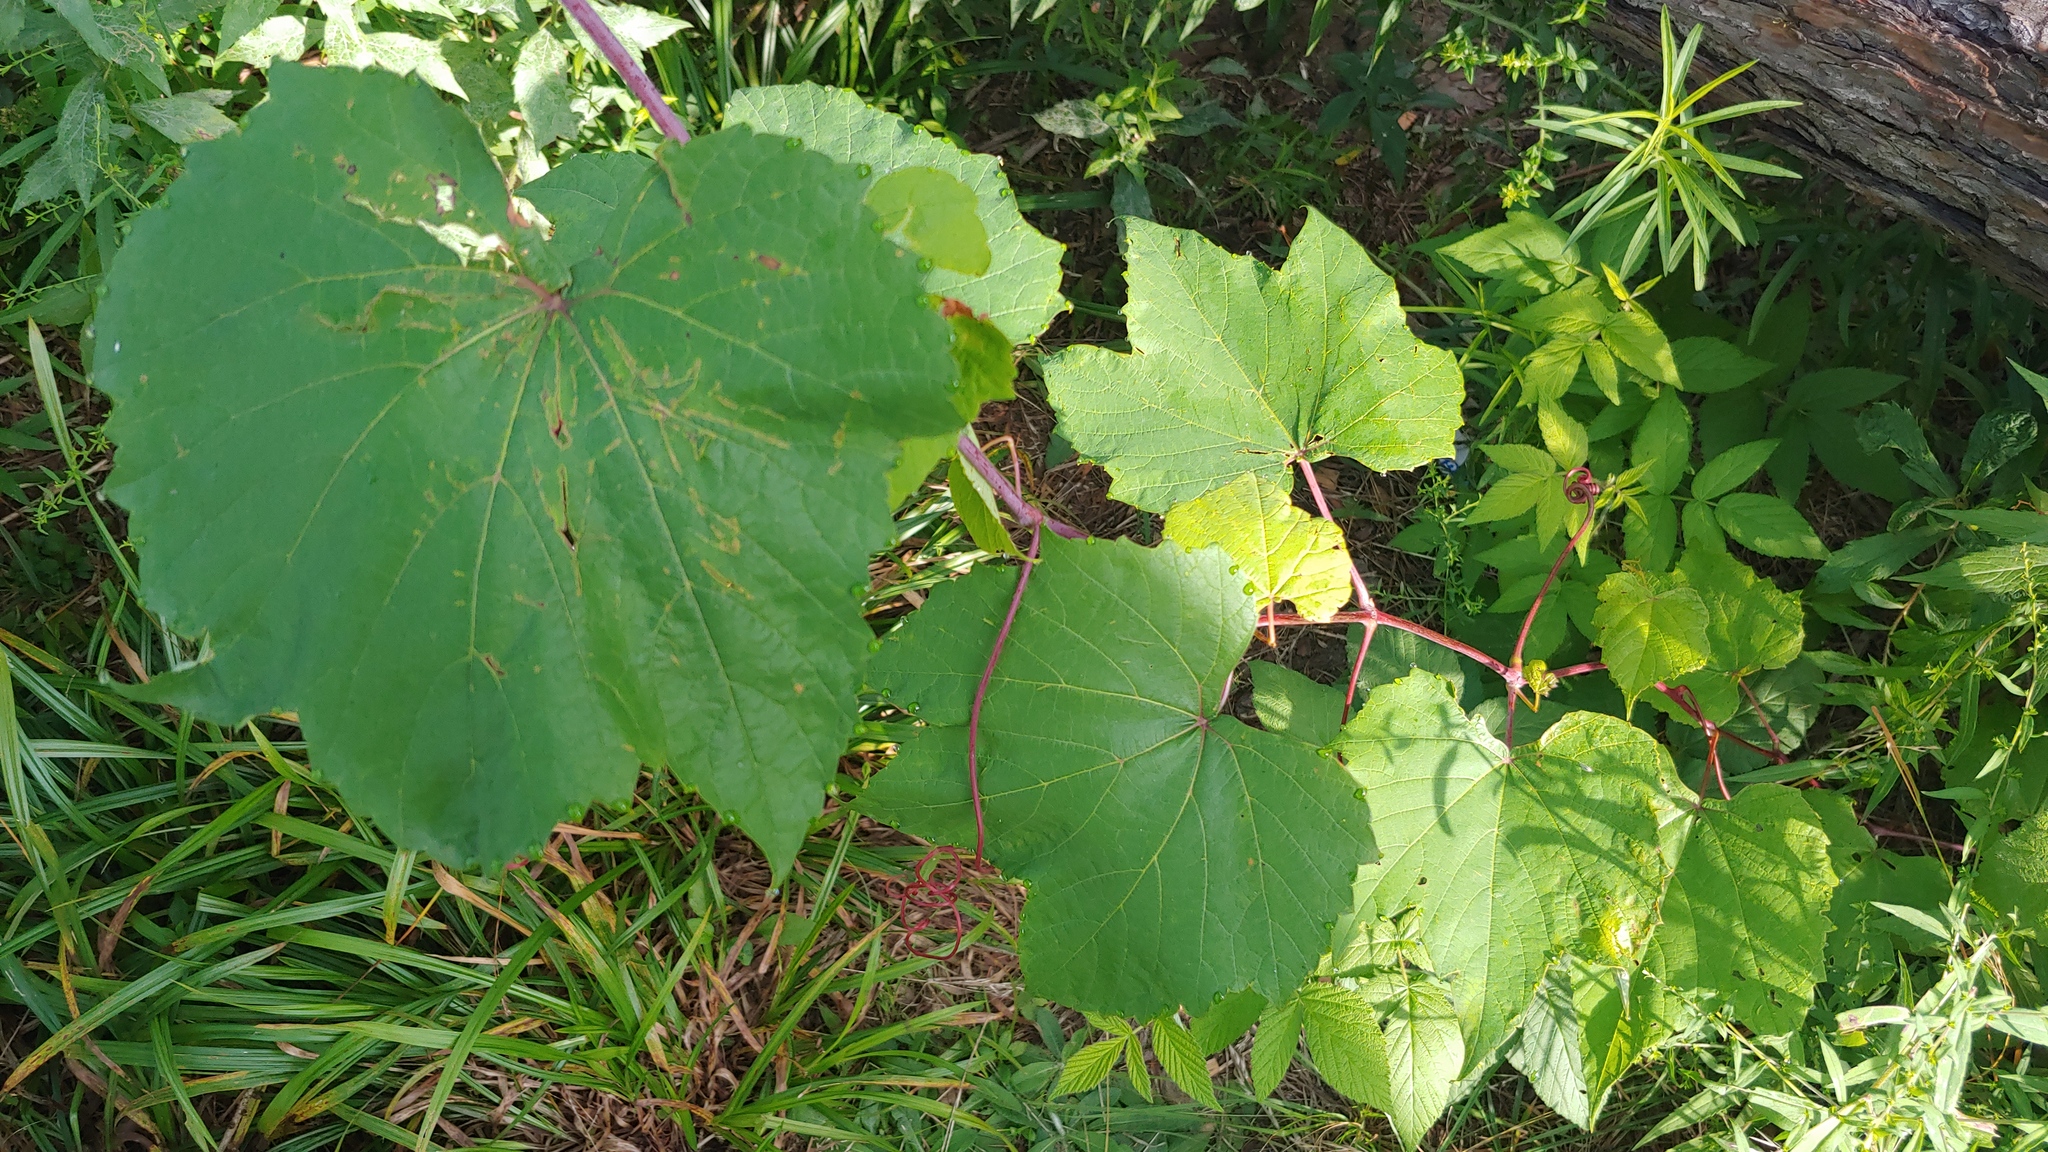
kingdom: Plantae
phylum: Tracheophyta
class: Magnoliopsida
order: Vitales
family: Vitaceae
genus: Vitis
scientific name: Vitis aestivalis
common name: Pigeon grape
